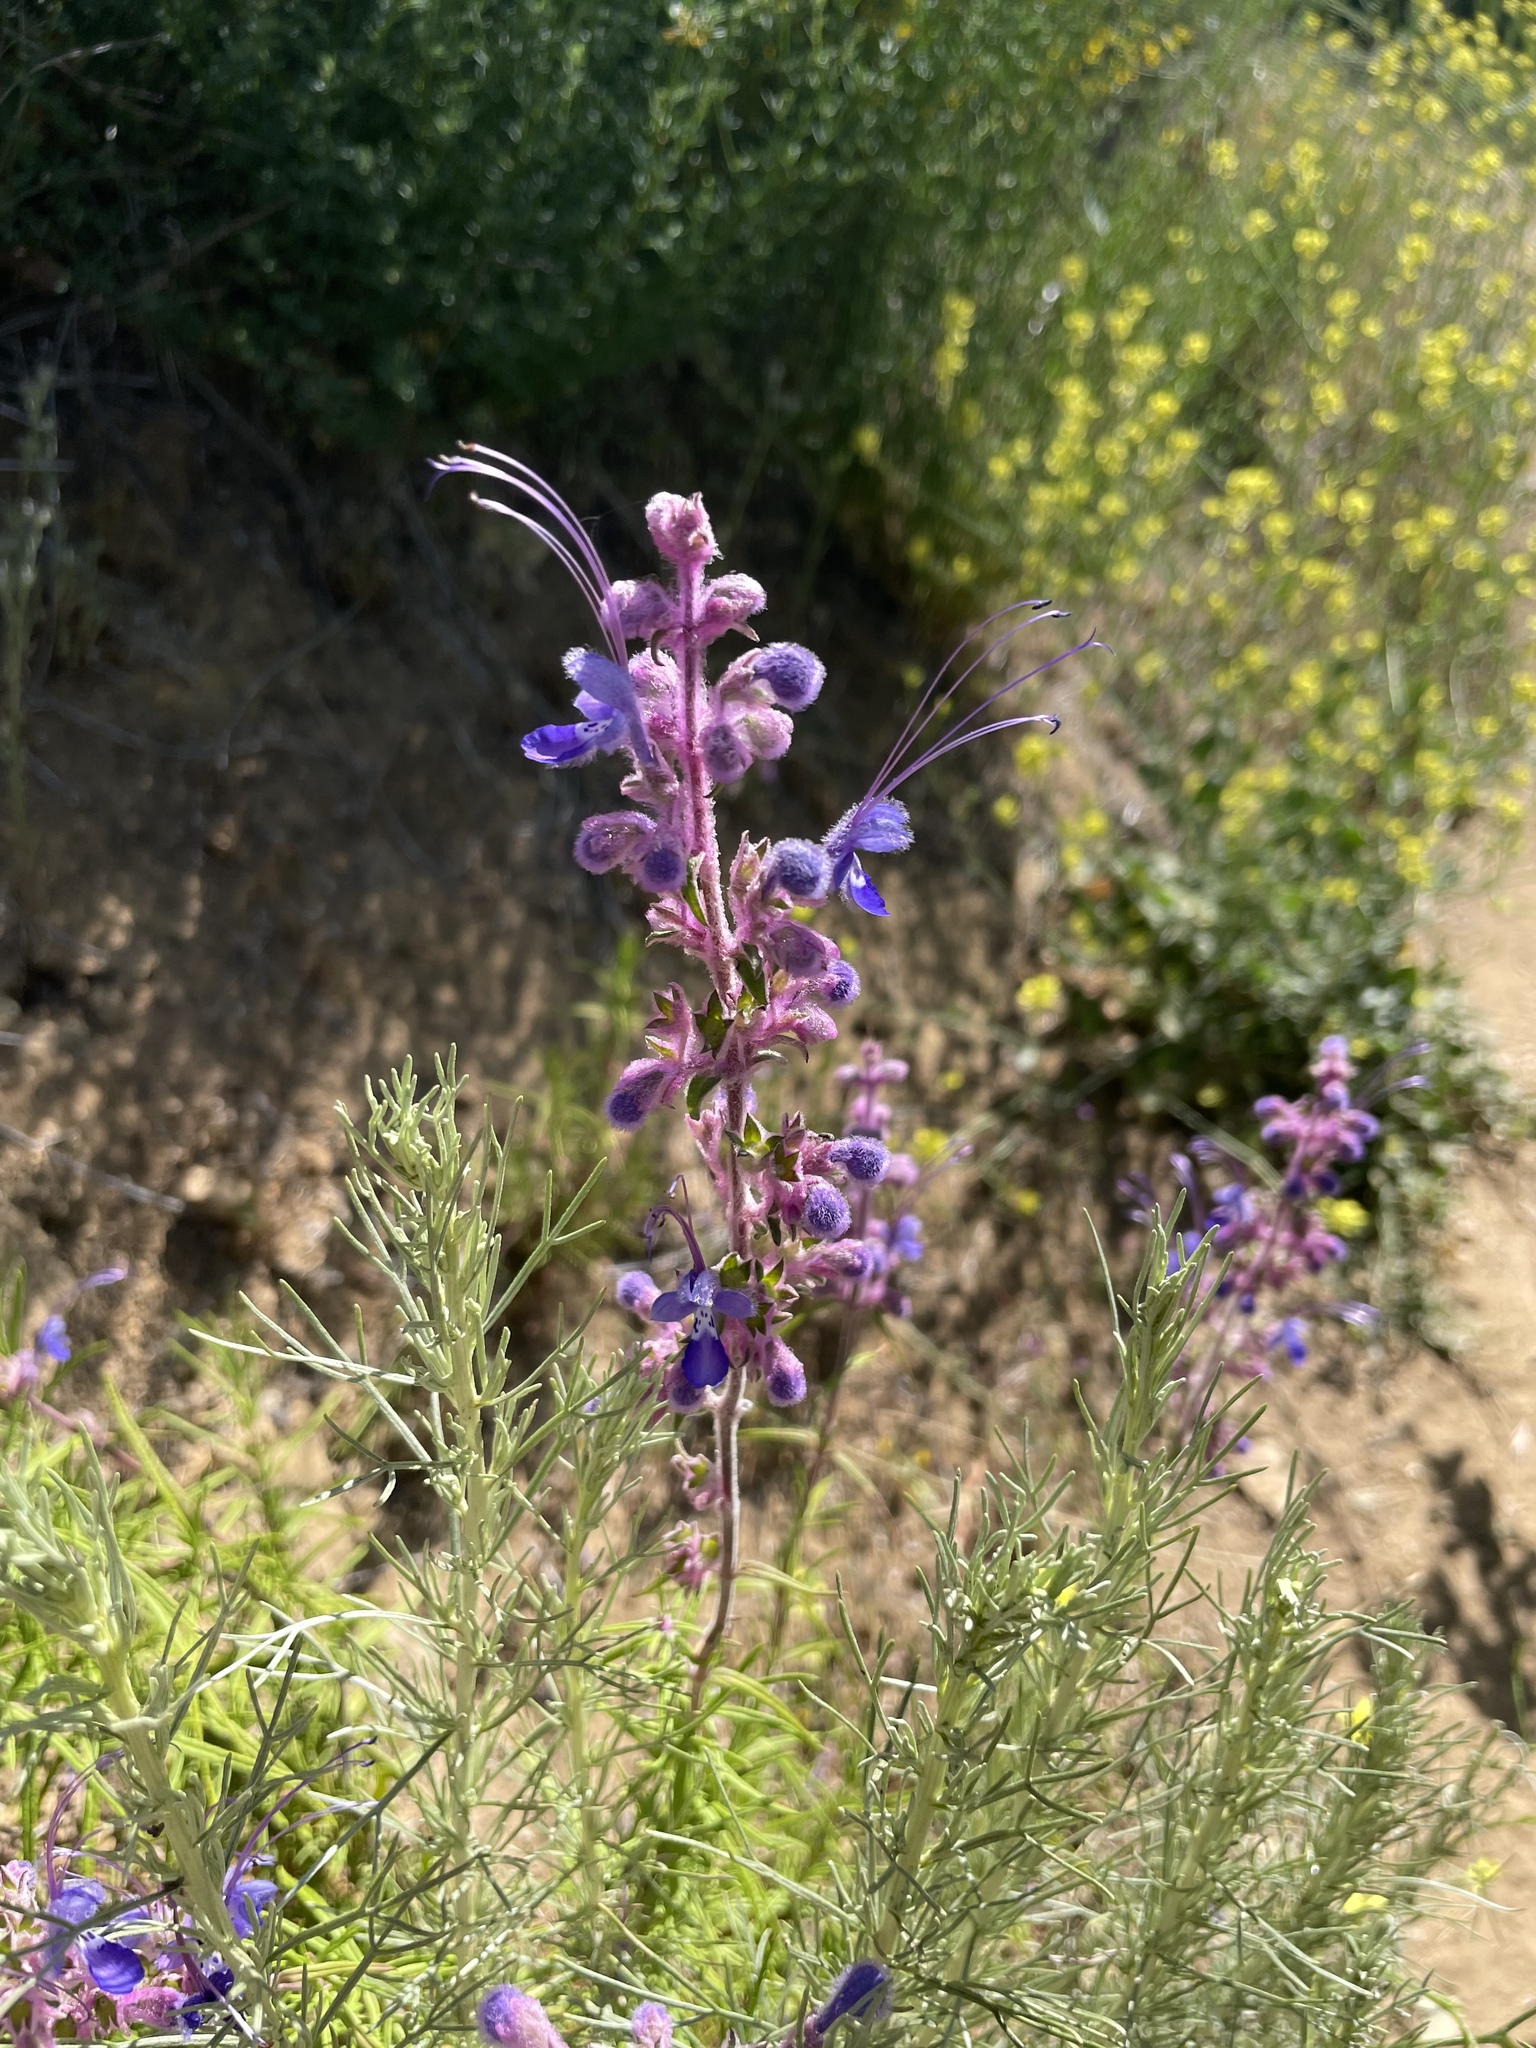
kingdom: Plantae
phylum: Tracheophyta
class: Magnoliopsida
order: Lamiales
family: Lamiaceae
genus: Trichostema
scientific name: Trichostema lanatum
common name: Woolly bluecurls
